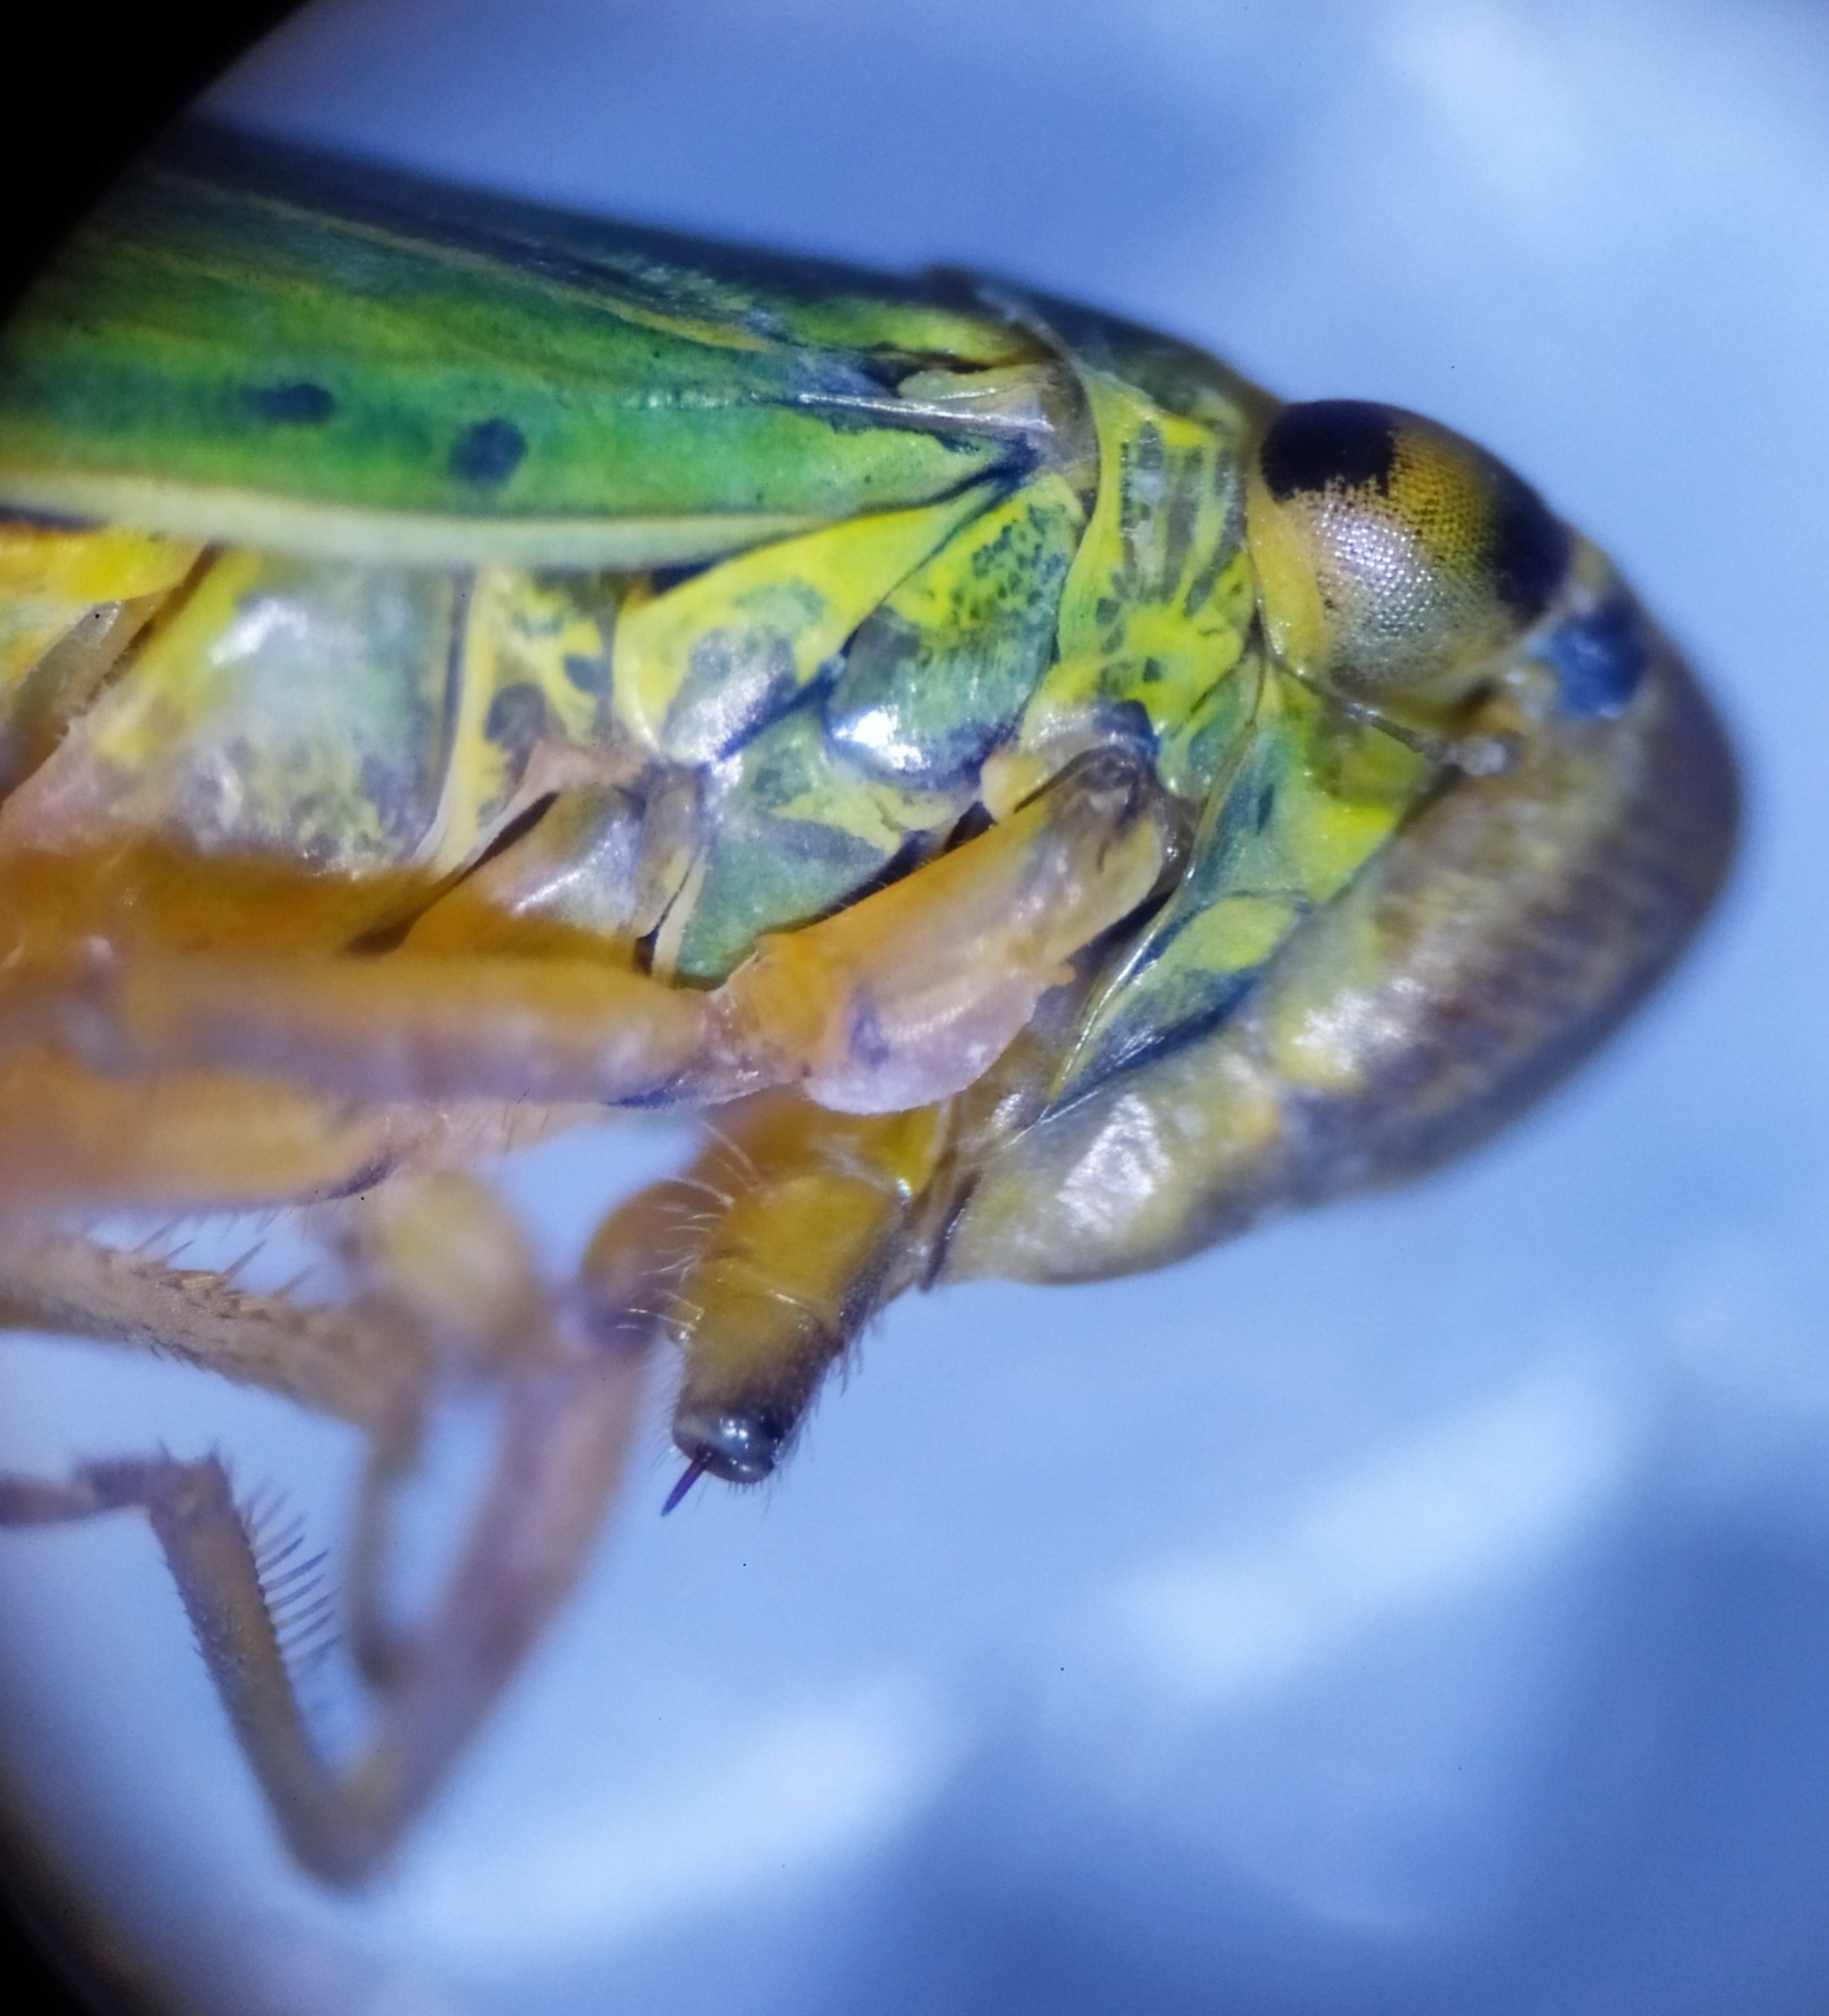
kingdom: Animalia
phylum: Arthropoda
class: Insecta
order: Hemiptera
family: Cicadellidae
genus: Cicadella
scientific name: Cicadella viridis
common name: Leafhopper
